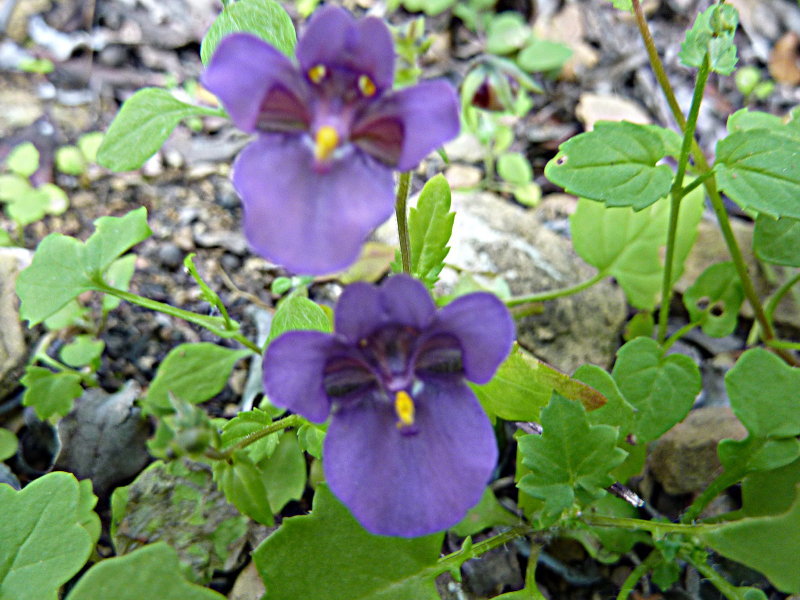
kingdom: Plantae
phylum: Tracheophyta
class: Magnoliopsida
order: Lamiales
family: Scrophulariaceae
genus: Diascia
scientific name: Diascia parviflora
